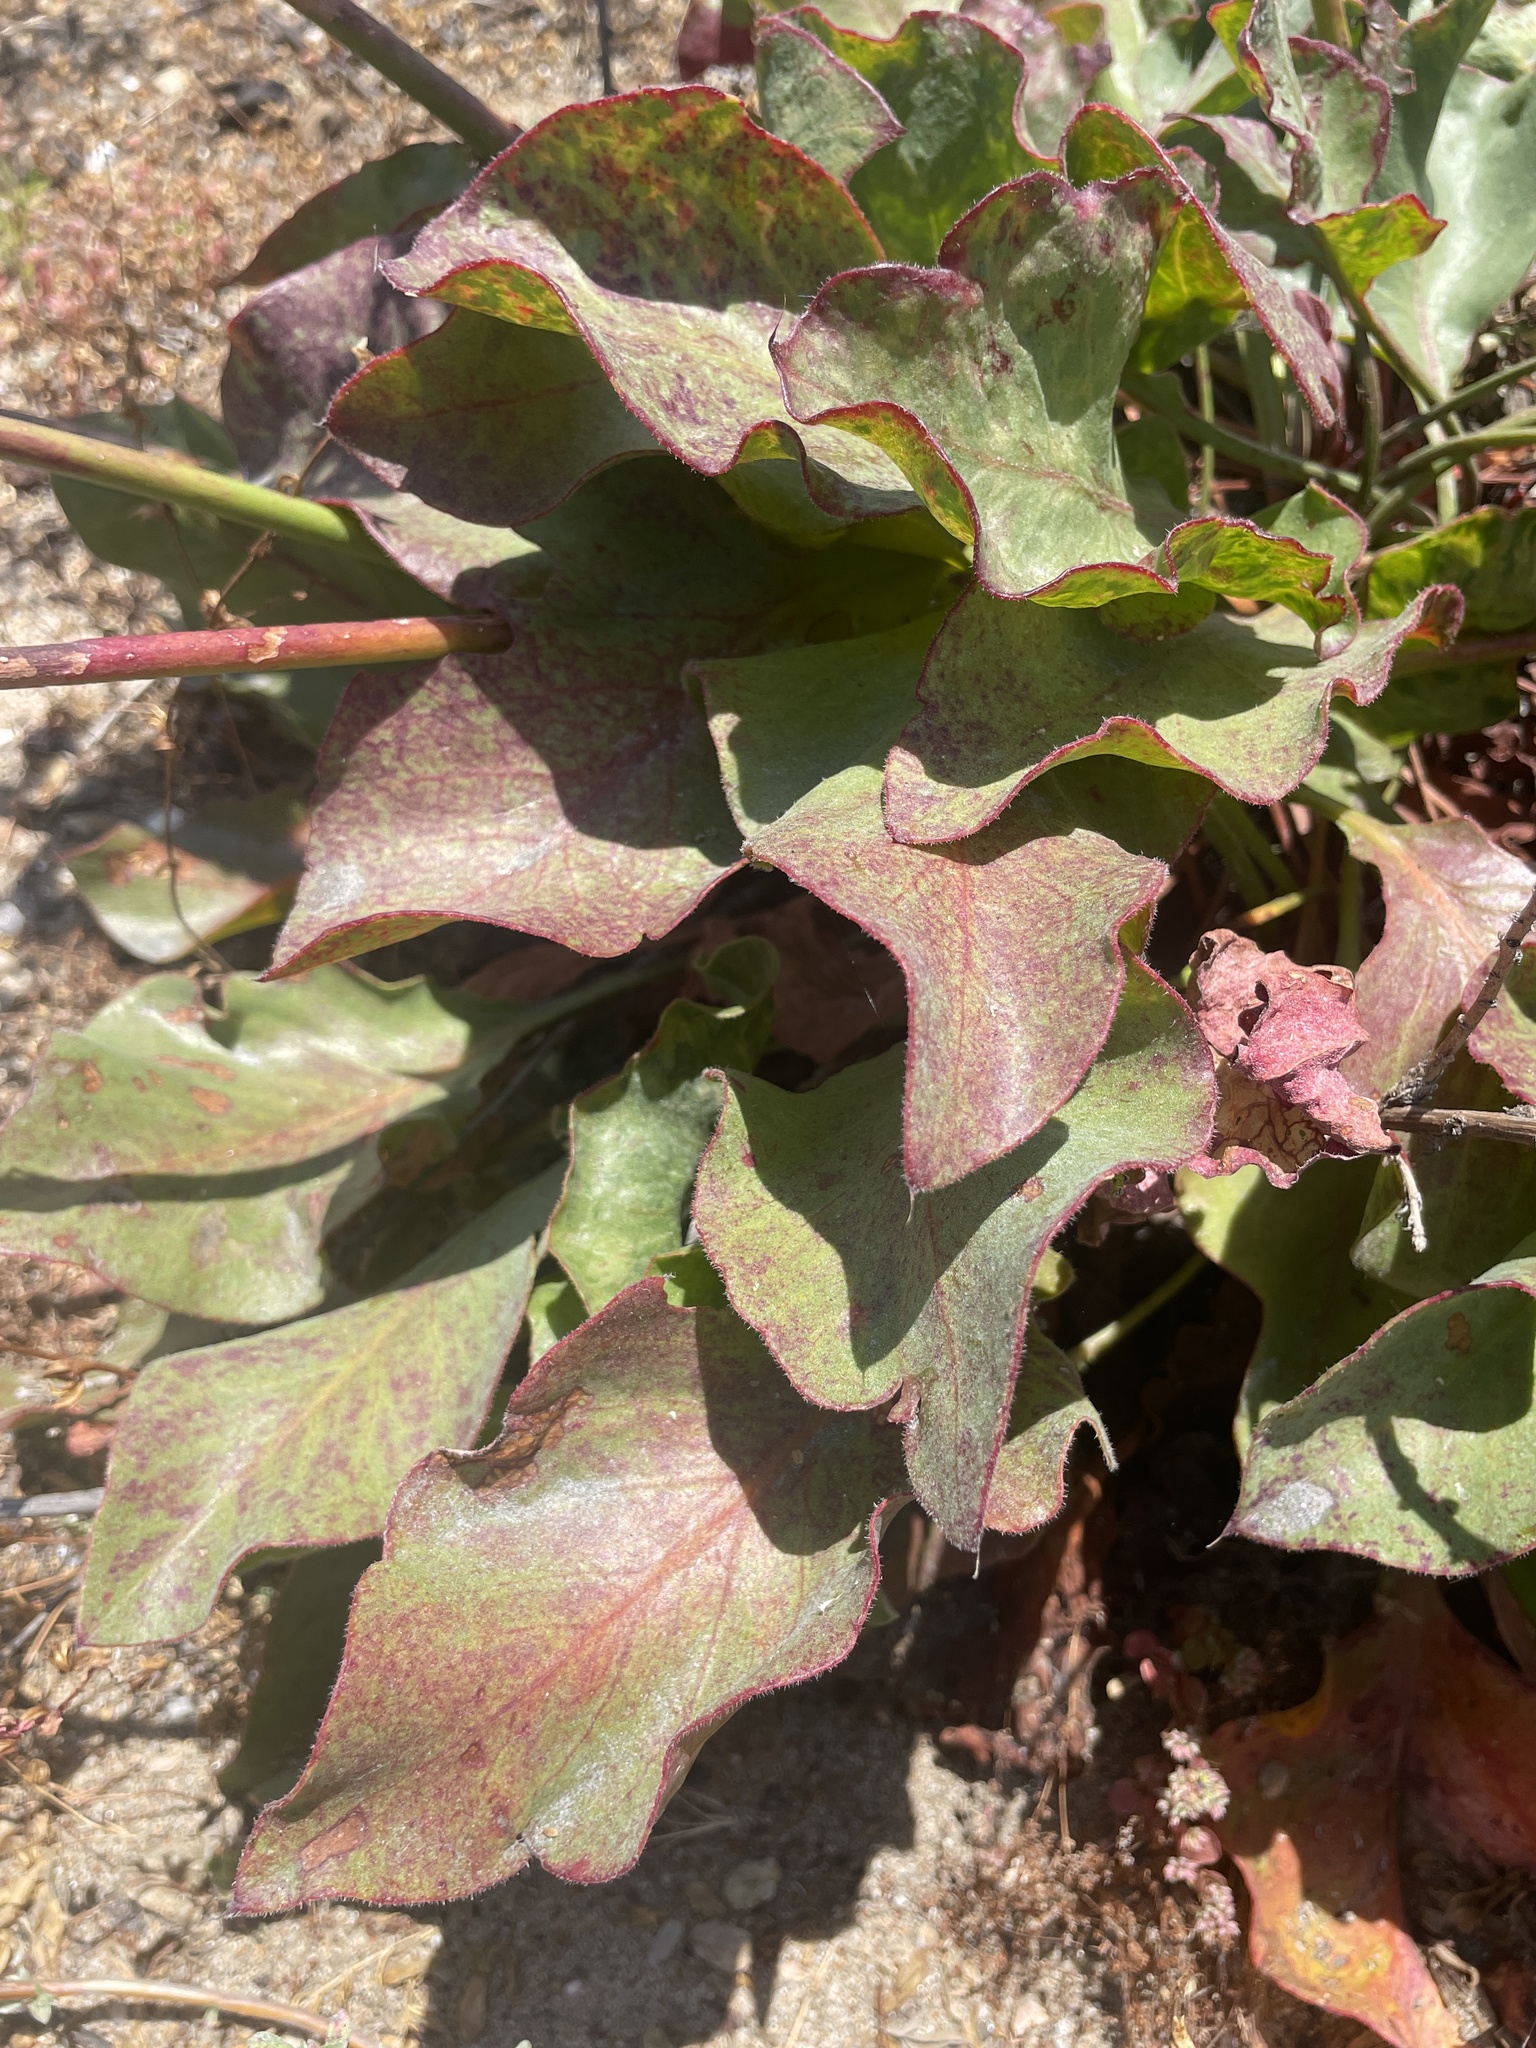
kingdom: Plantae
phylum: Tracheophyta
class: Magnoliopsida
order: Caryophyllales
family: Plumbaginaceae
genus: Limonium
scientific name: Limonium perezii
